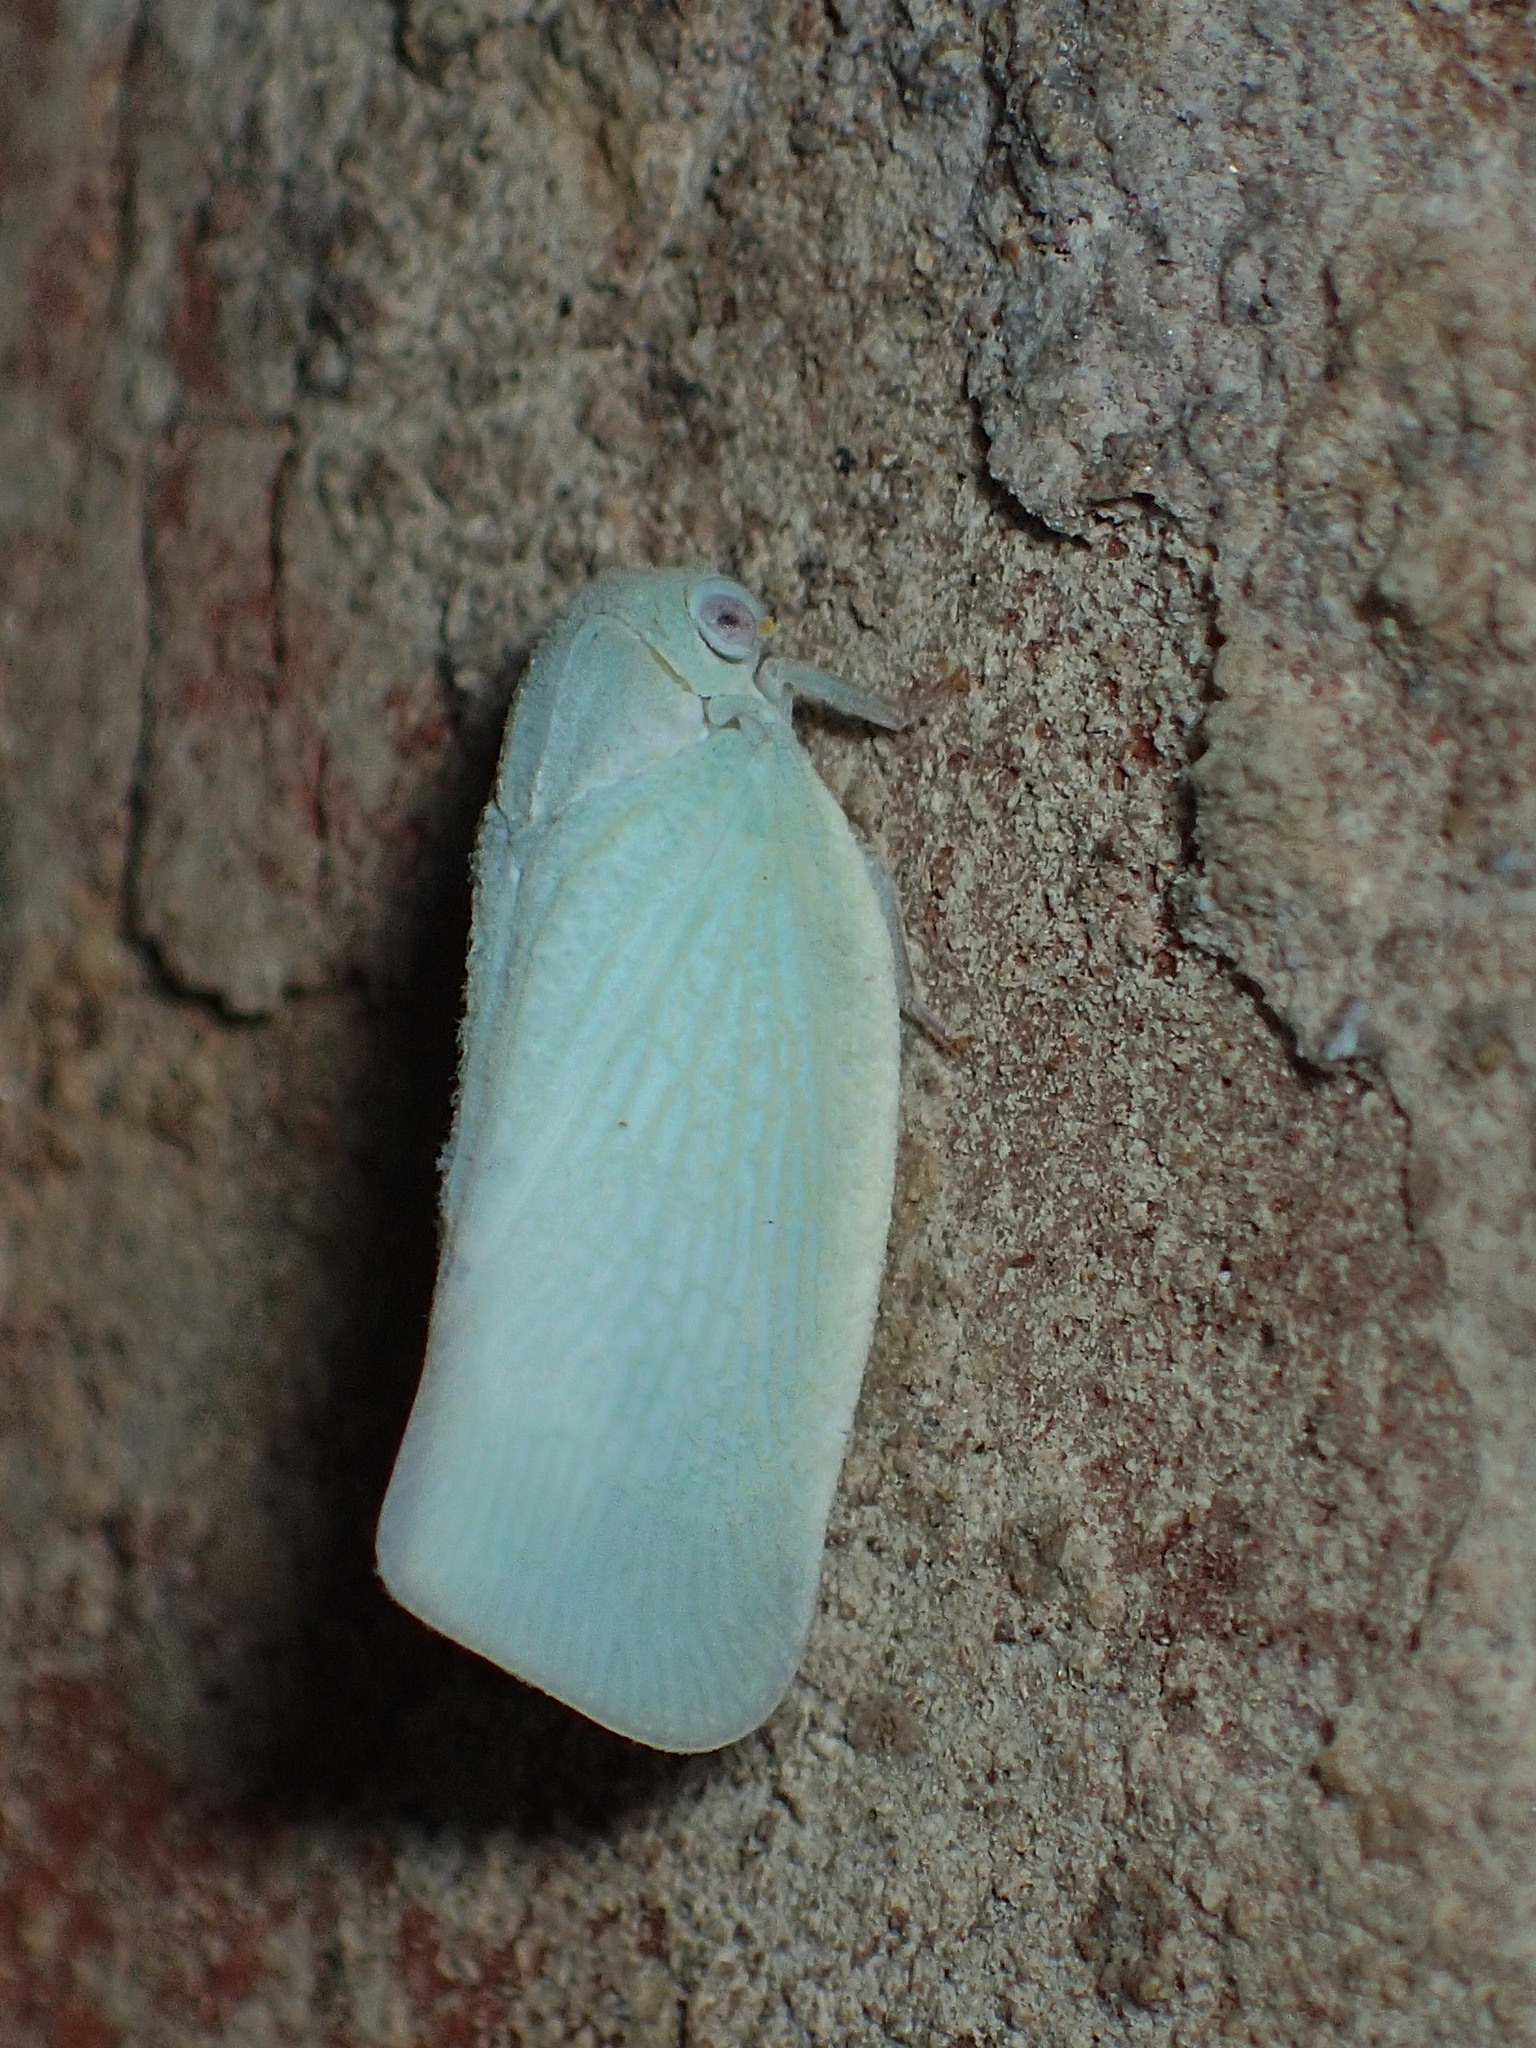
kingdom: Animalia
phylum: Arthropoda
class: Insecta
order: Hemiptera
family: Flatidae
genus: Flatormenis
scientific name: Flatormenis proxima
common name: Northern flatid planthopper
